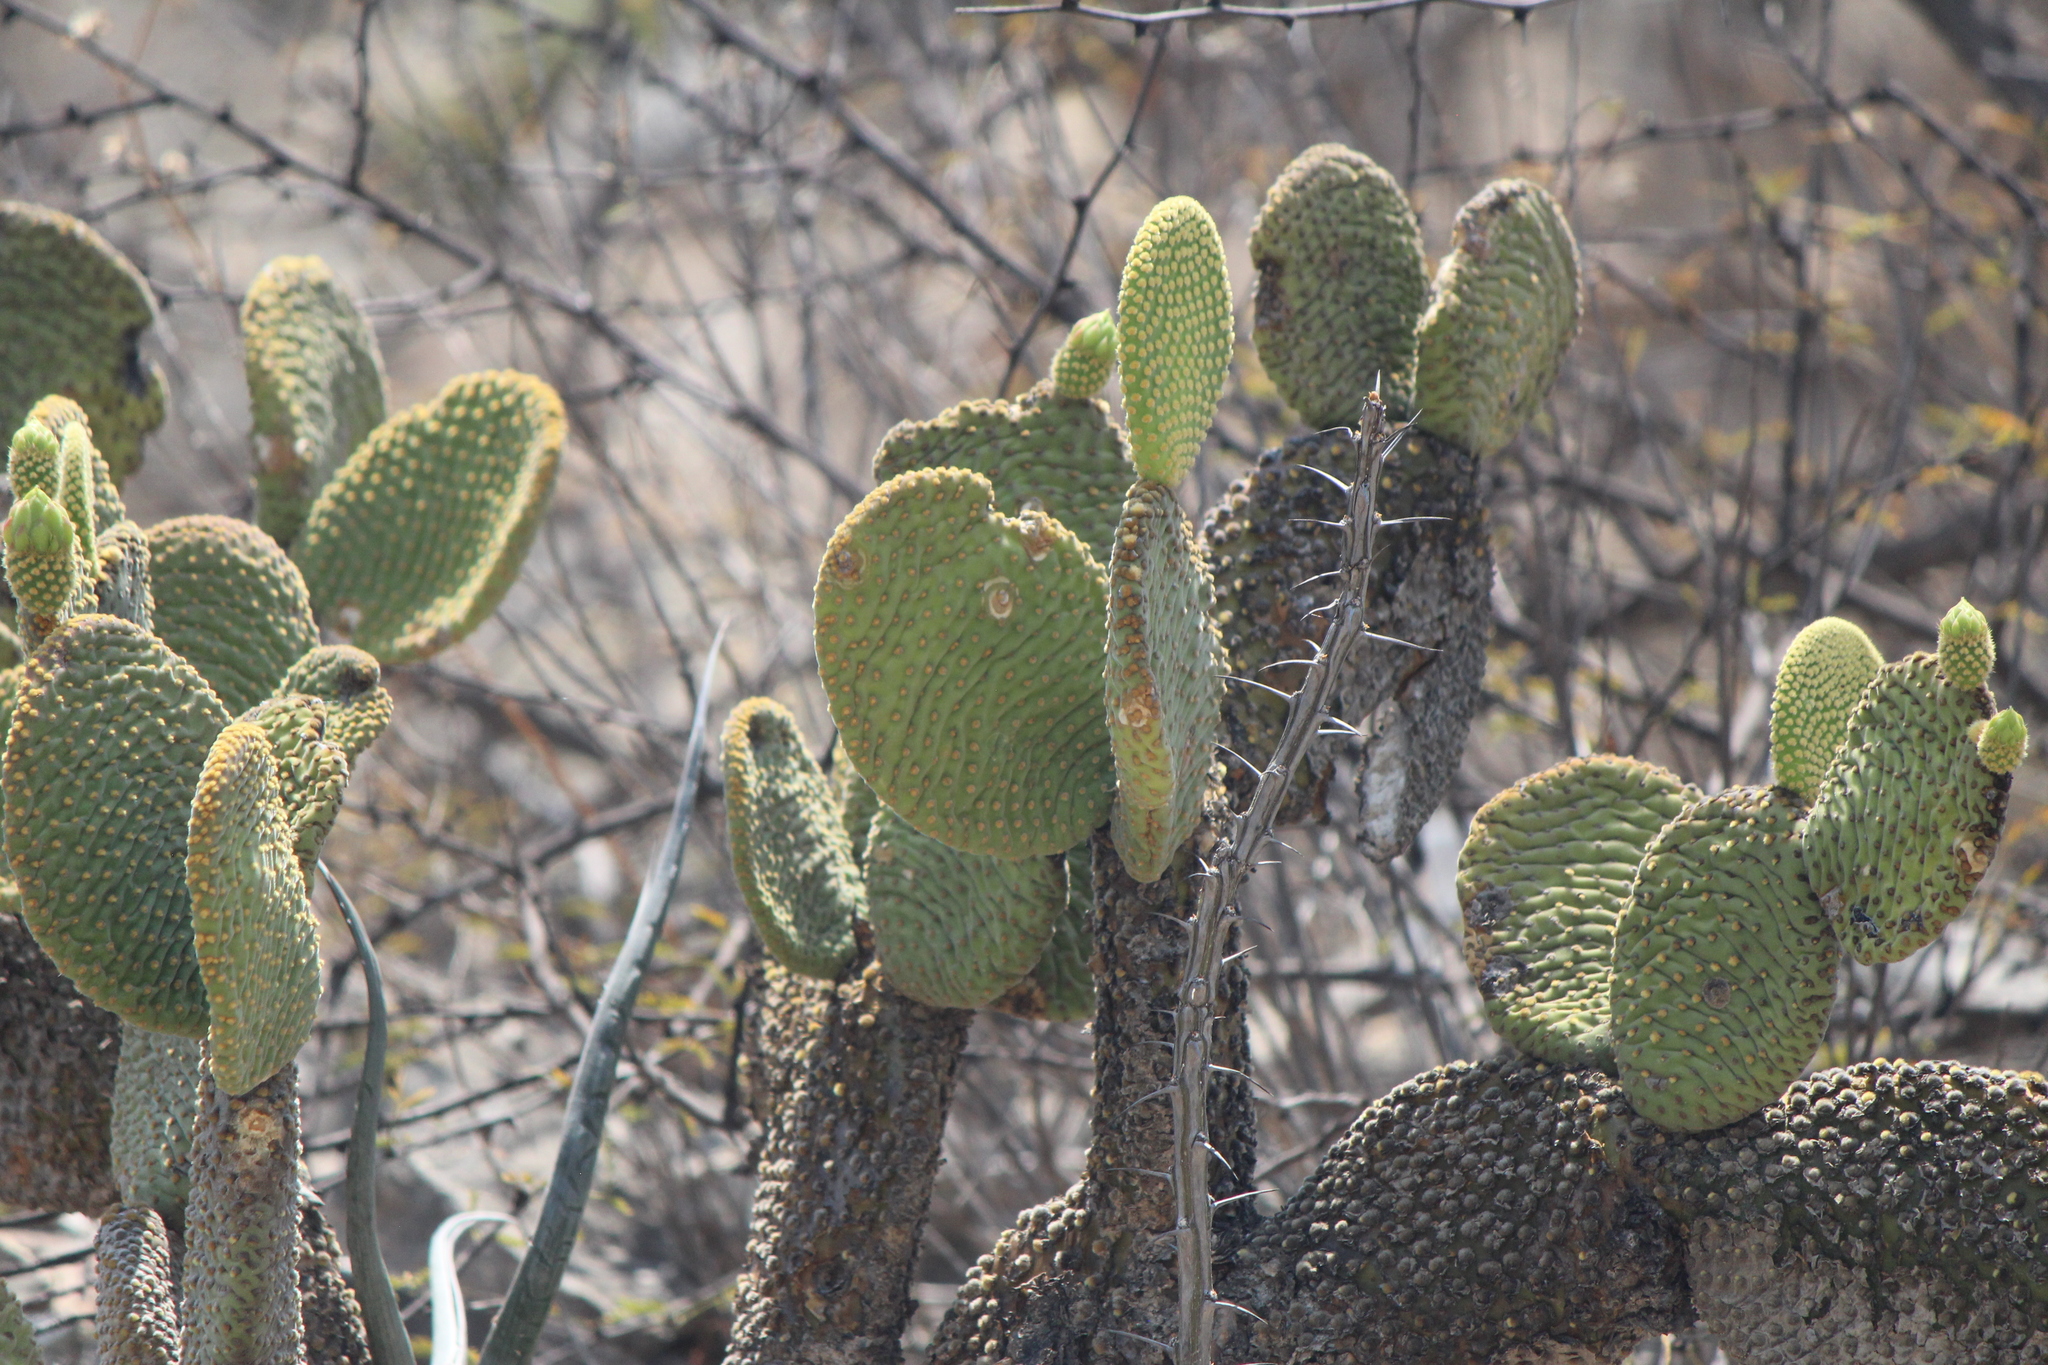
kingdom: Plantae
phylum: Tracheophyta
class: Magnoliopsida
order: Caryophyllales
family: Cactaceae
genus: Opuntia
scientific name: Opuntia microdasys
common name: Angel's-wings
